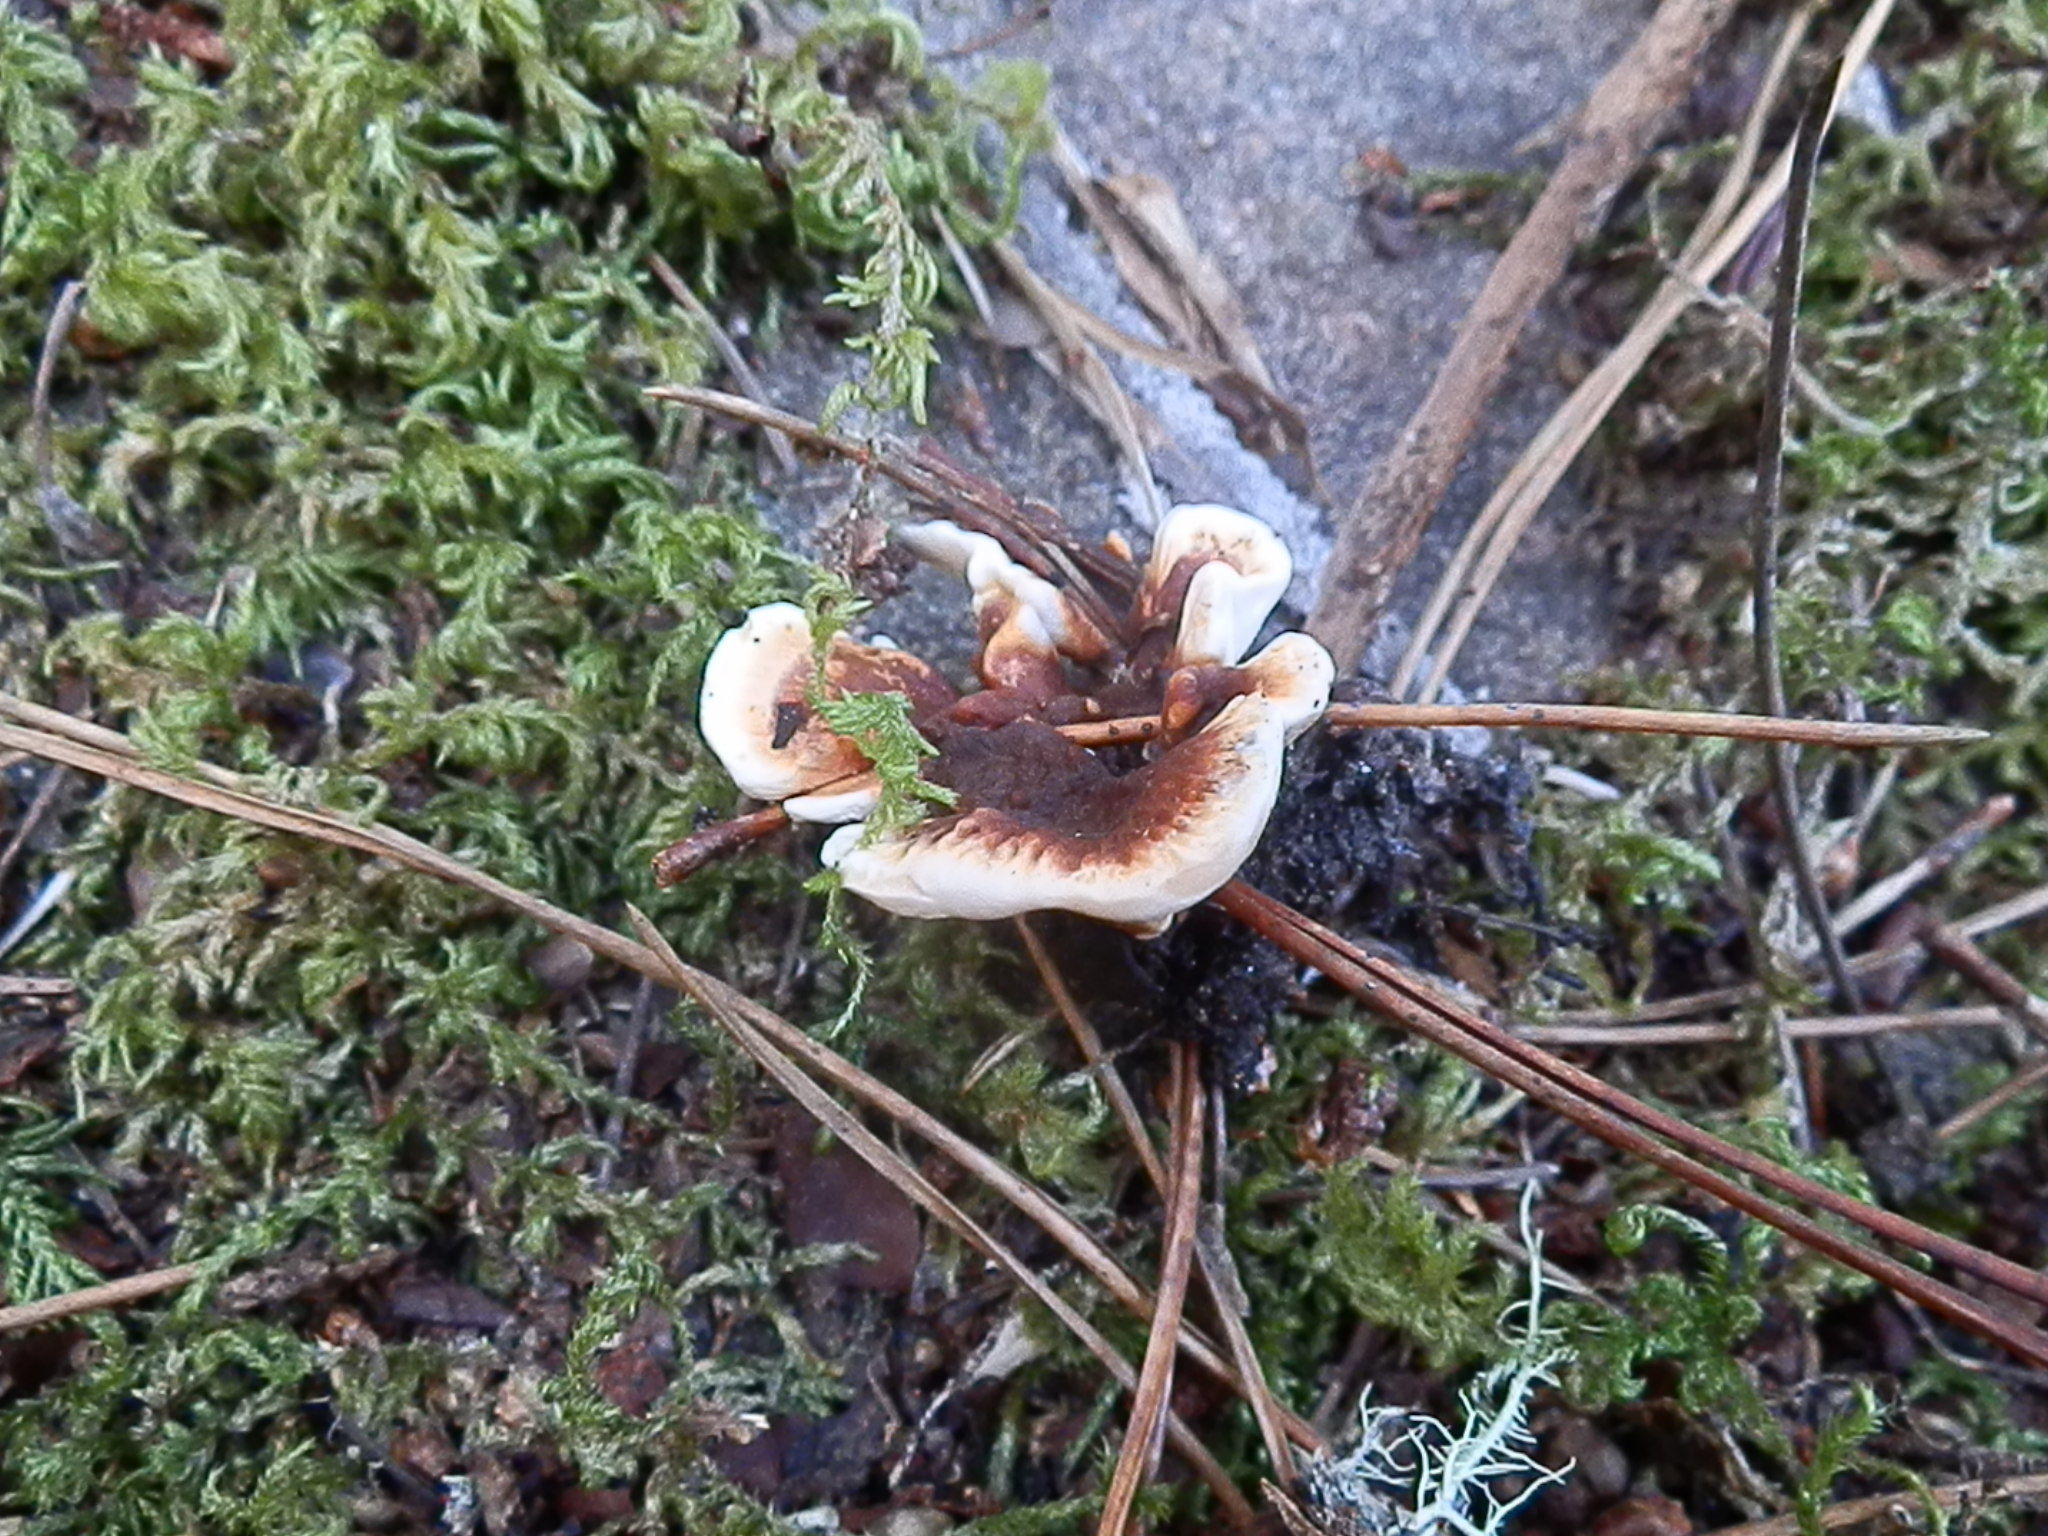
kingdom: Fungi
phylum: Basidiomycota
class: Agaricomycetes
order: Thelephorales
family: Bankeraceae
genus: Hydnellum
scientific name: Hydnellum concrescens
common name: Zoned tooth
